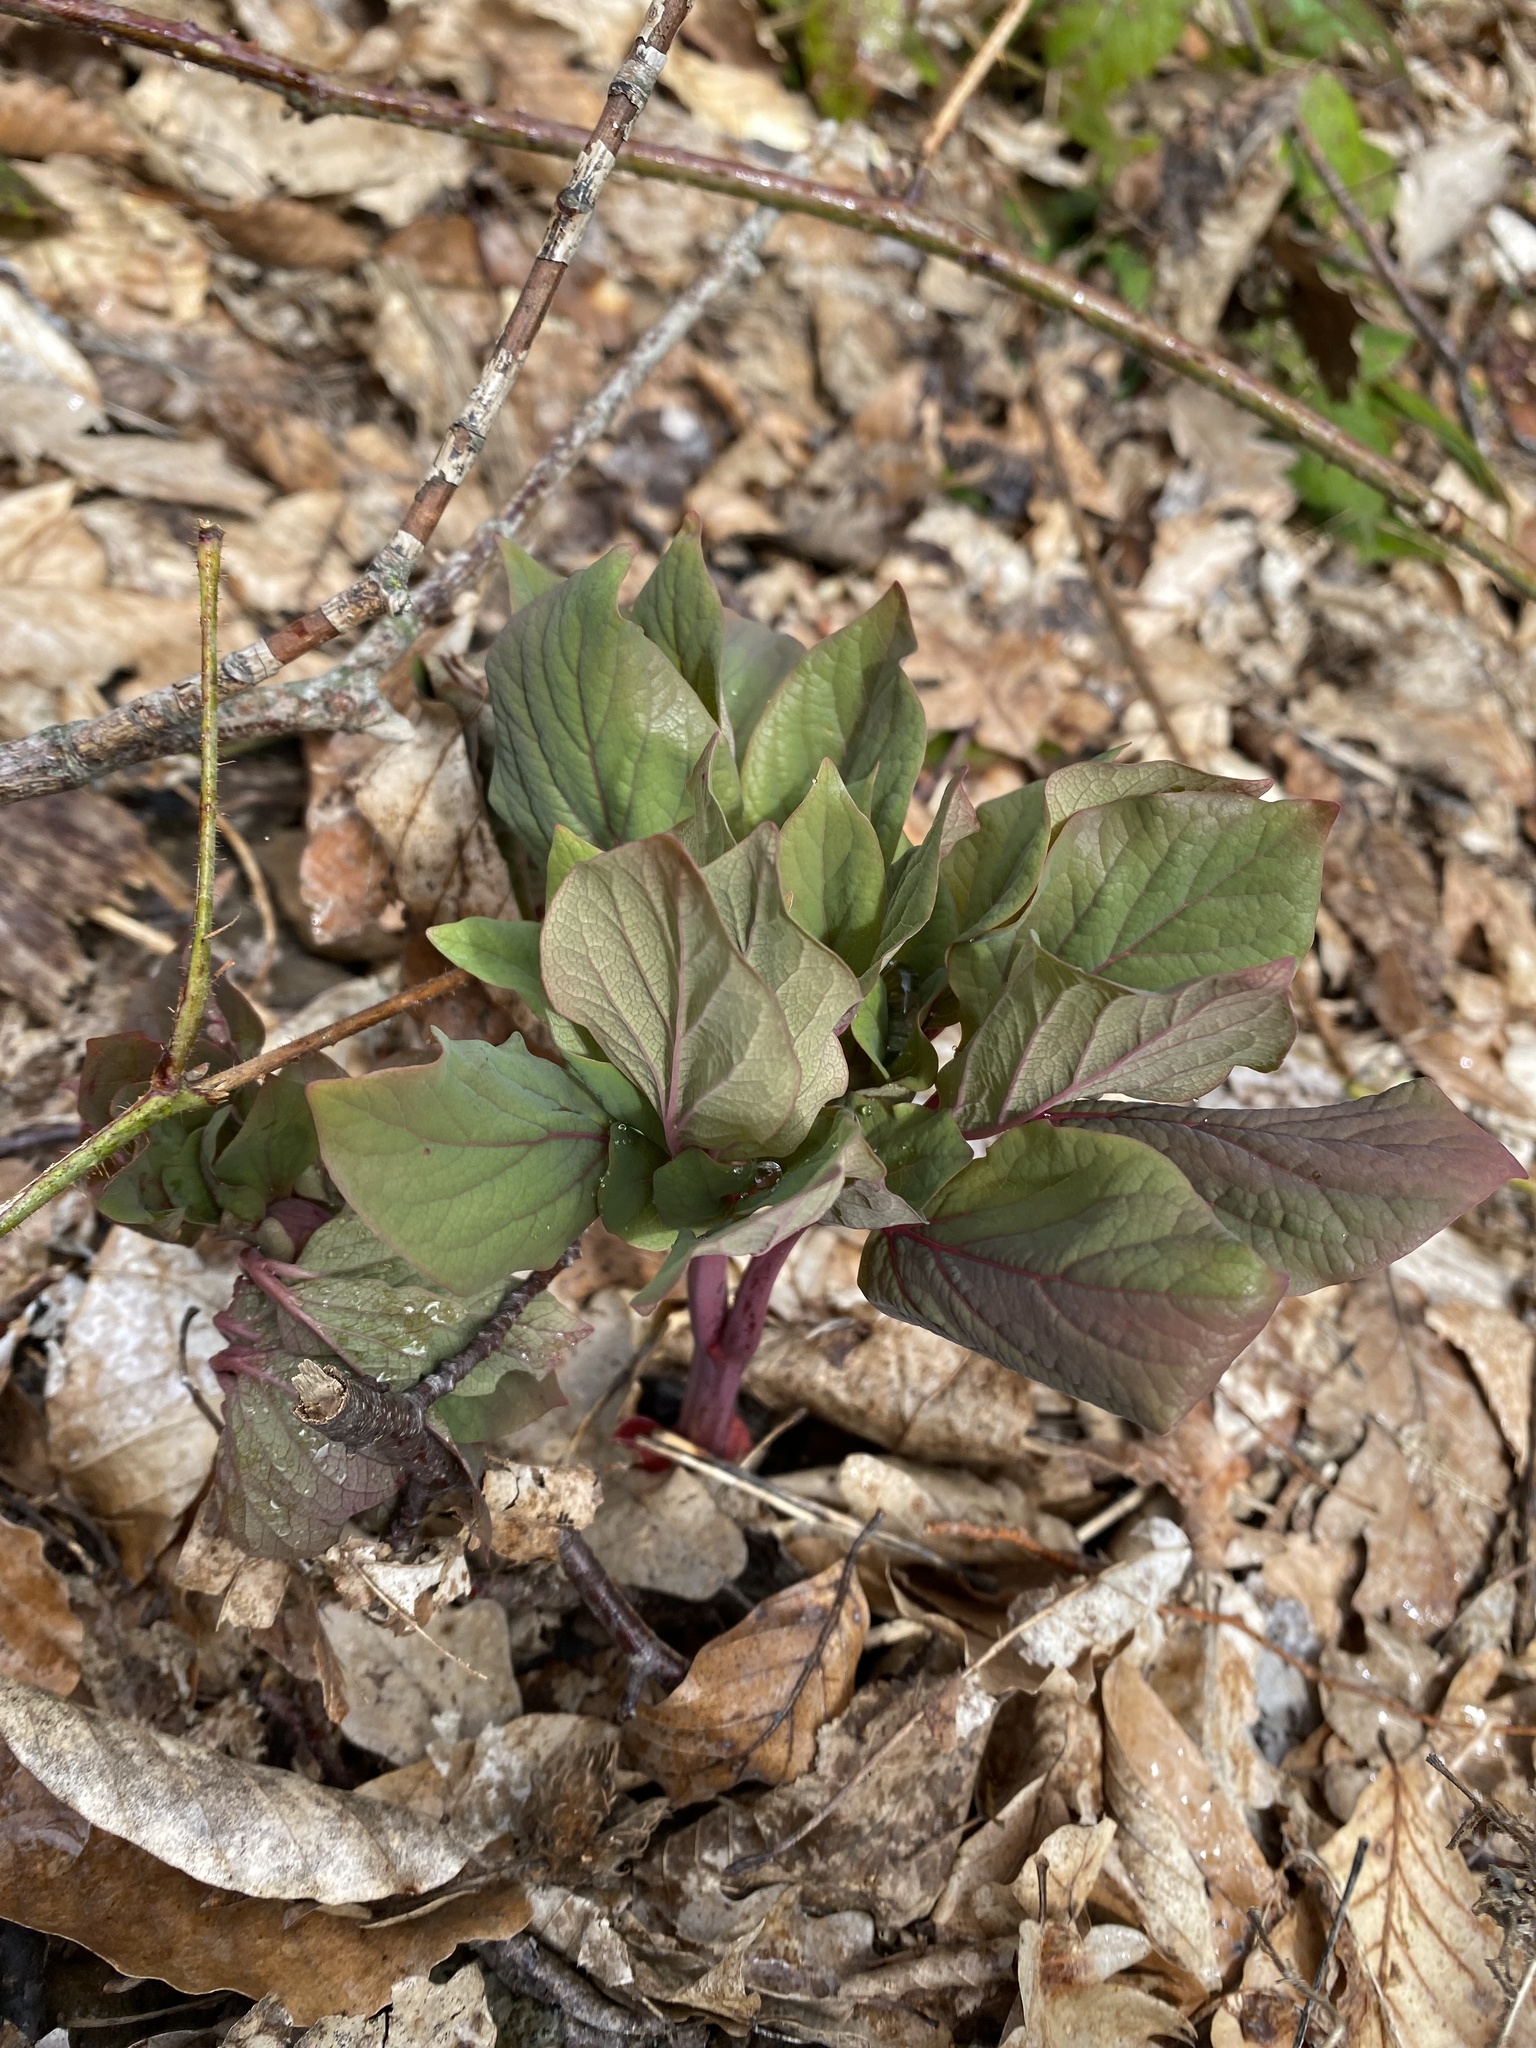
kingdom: Plantae
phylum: Tracheophyta
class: Magnoliopsida
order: Saxifragales
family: Paeoniaceae
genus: Paeonia
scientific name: Paeonia caucasica
